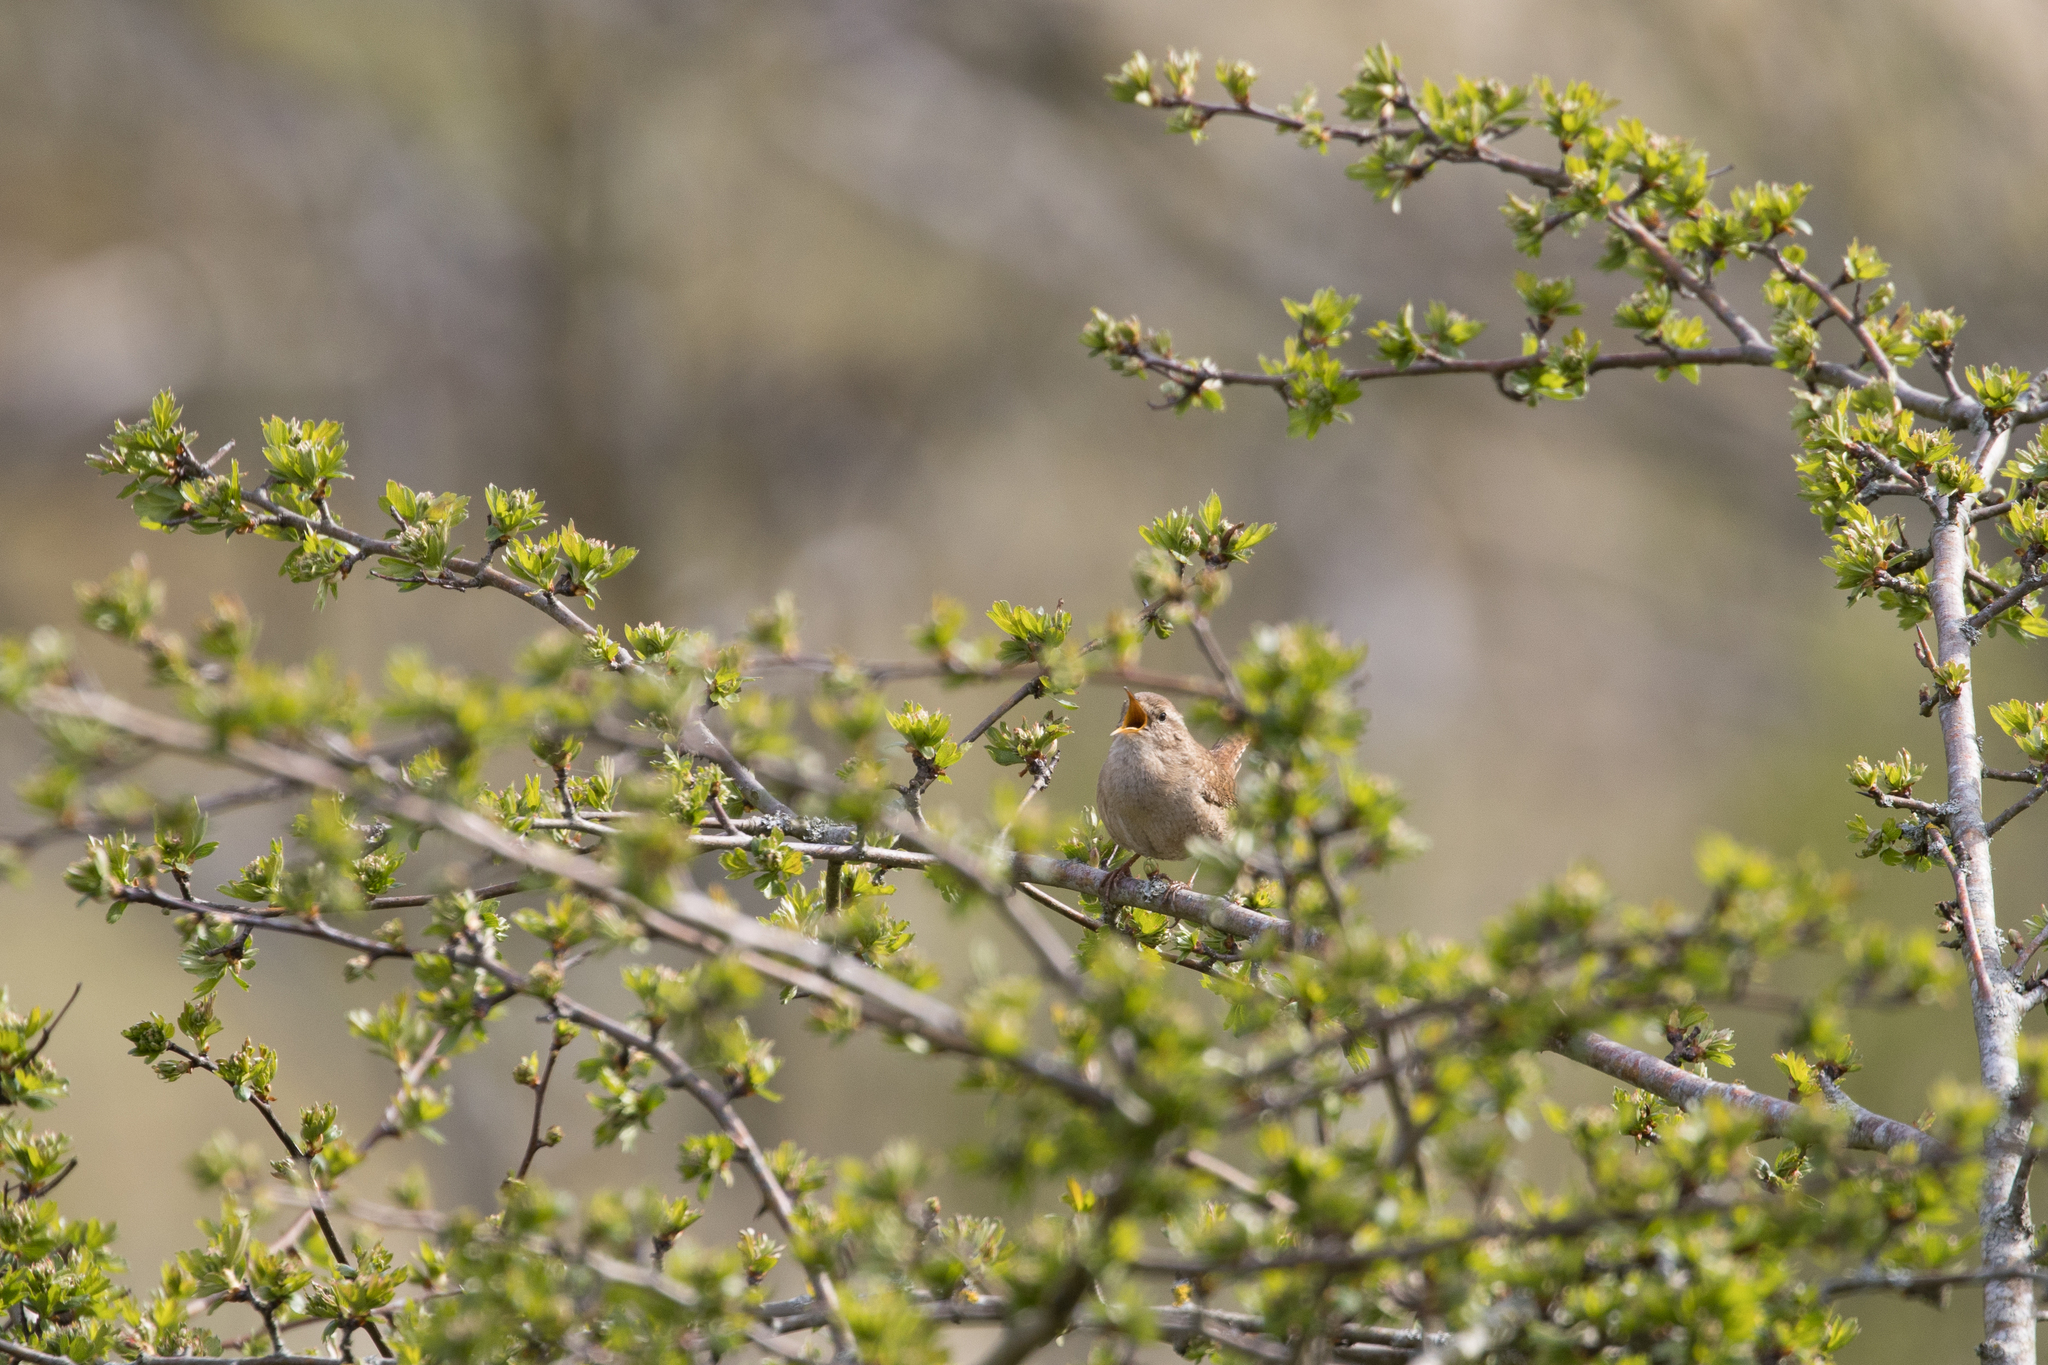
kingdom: Animalia
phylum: Chordata
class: Aves
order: Passeriformes
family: Troglodytidae
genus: Troglodytes
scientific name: Troglodytes troglodytes
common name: Eurasian wren
